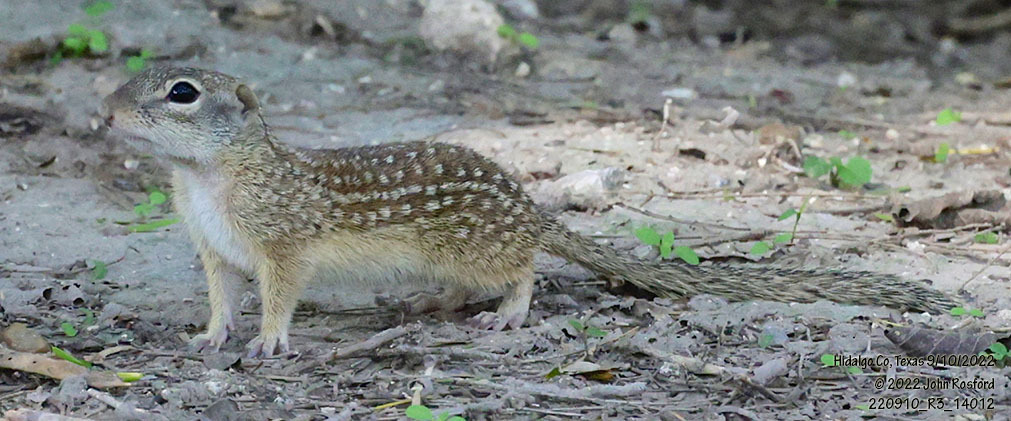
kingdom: Animalia
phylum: Chordata
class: Mammalia
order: Rodentia
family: Sciuridae
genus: Ictidomys
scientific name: Ictidomys parvidens
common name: Rio grande ground squirrel
